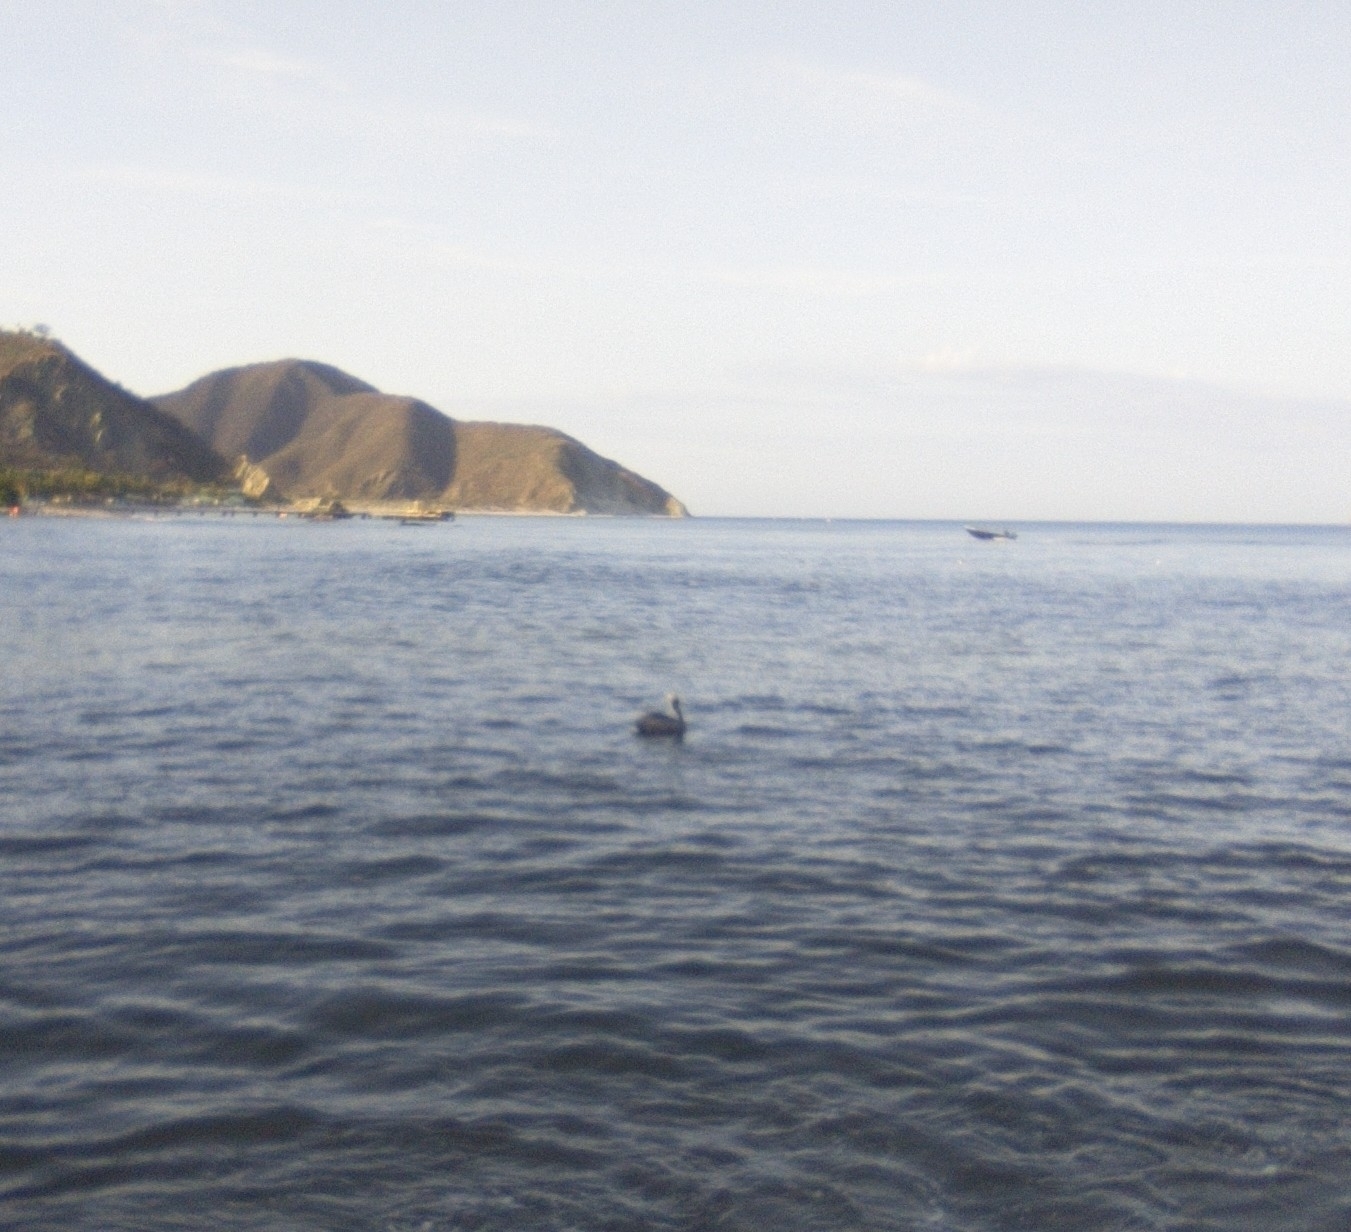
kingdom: Animalia
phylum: Chordata
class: Aves
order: Pelecaniformes
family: Pelecanidae
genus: Pelecanus
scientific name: Pelecanus occidentalis
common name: Brown pelican
